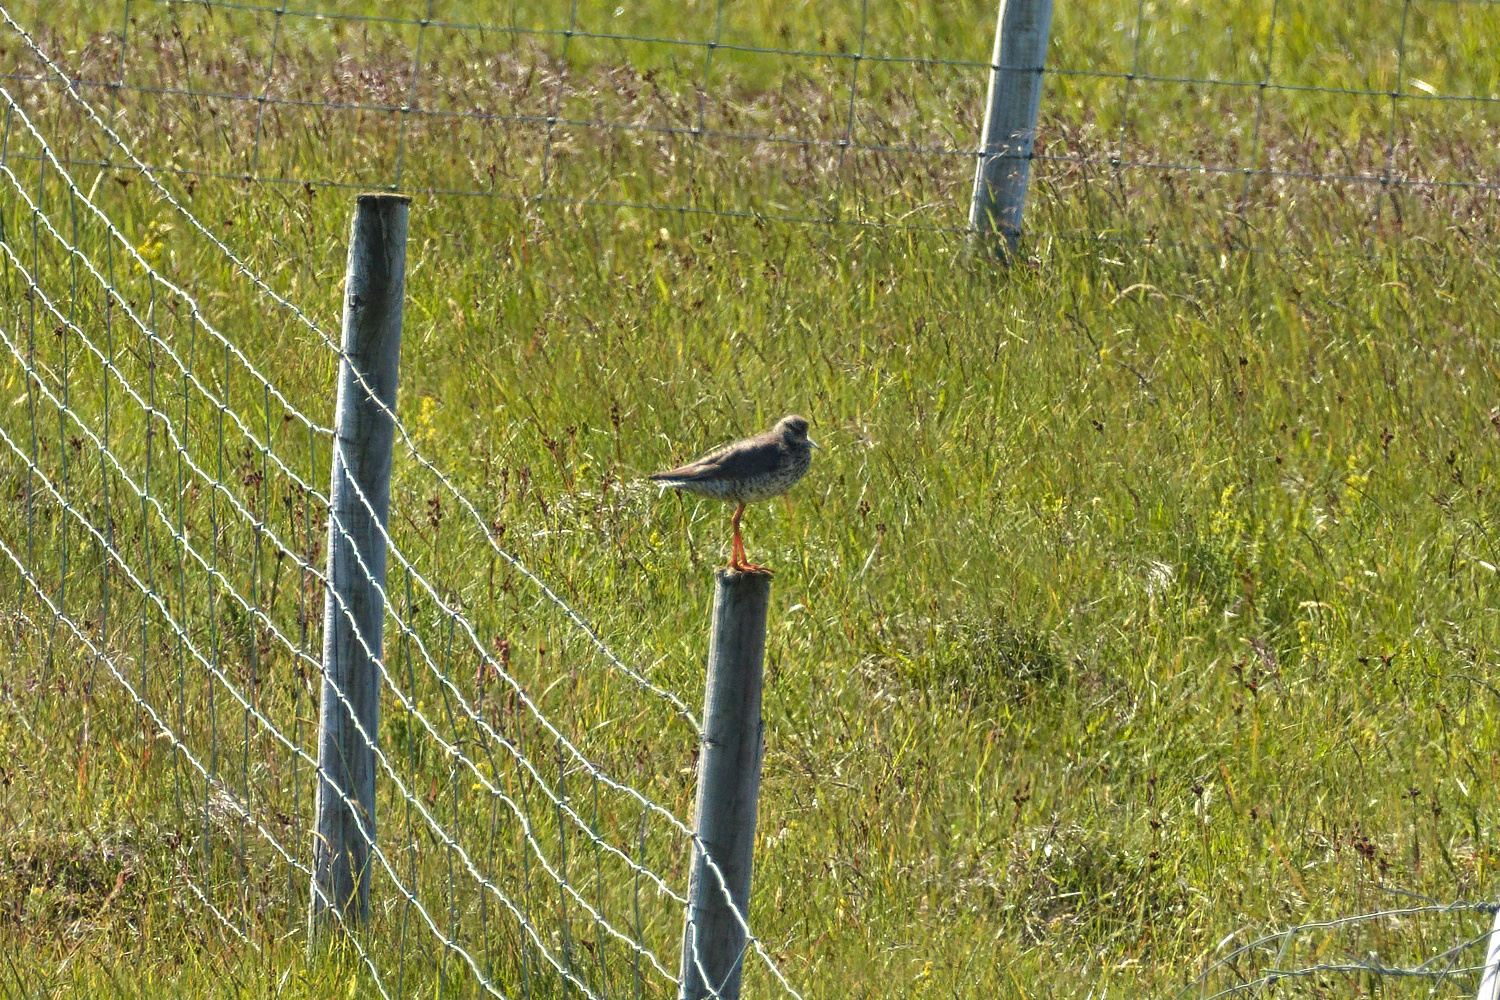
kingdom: Animalia
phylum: Chordata
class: Aves
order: Charadriiformes
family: Scolopacidae
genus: Tringa
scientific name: Tringa totanus
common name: Common redshank
